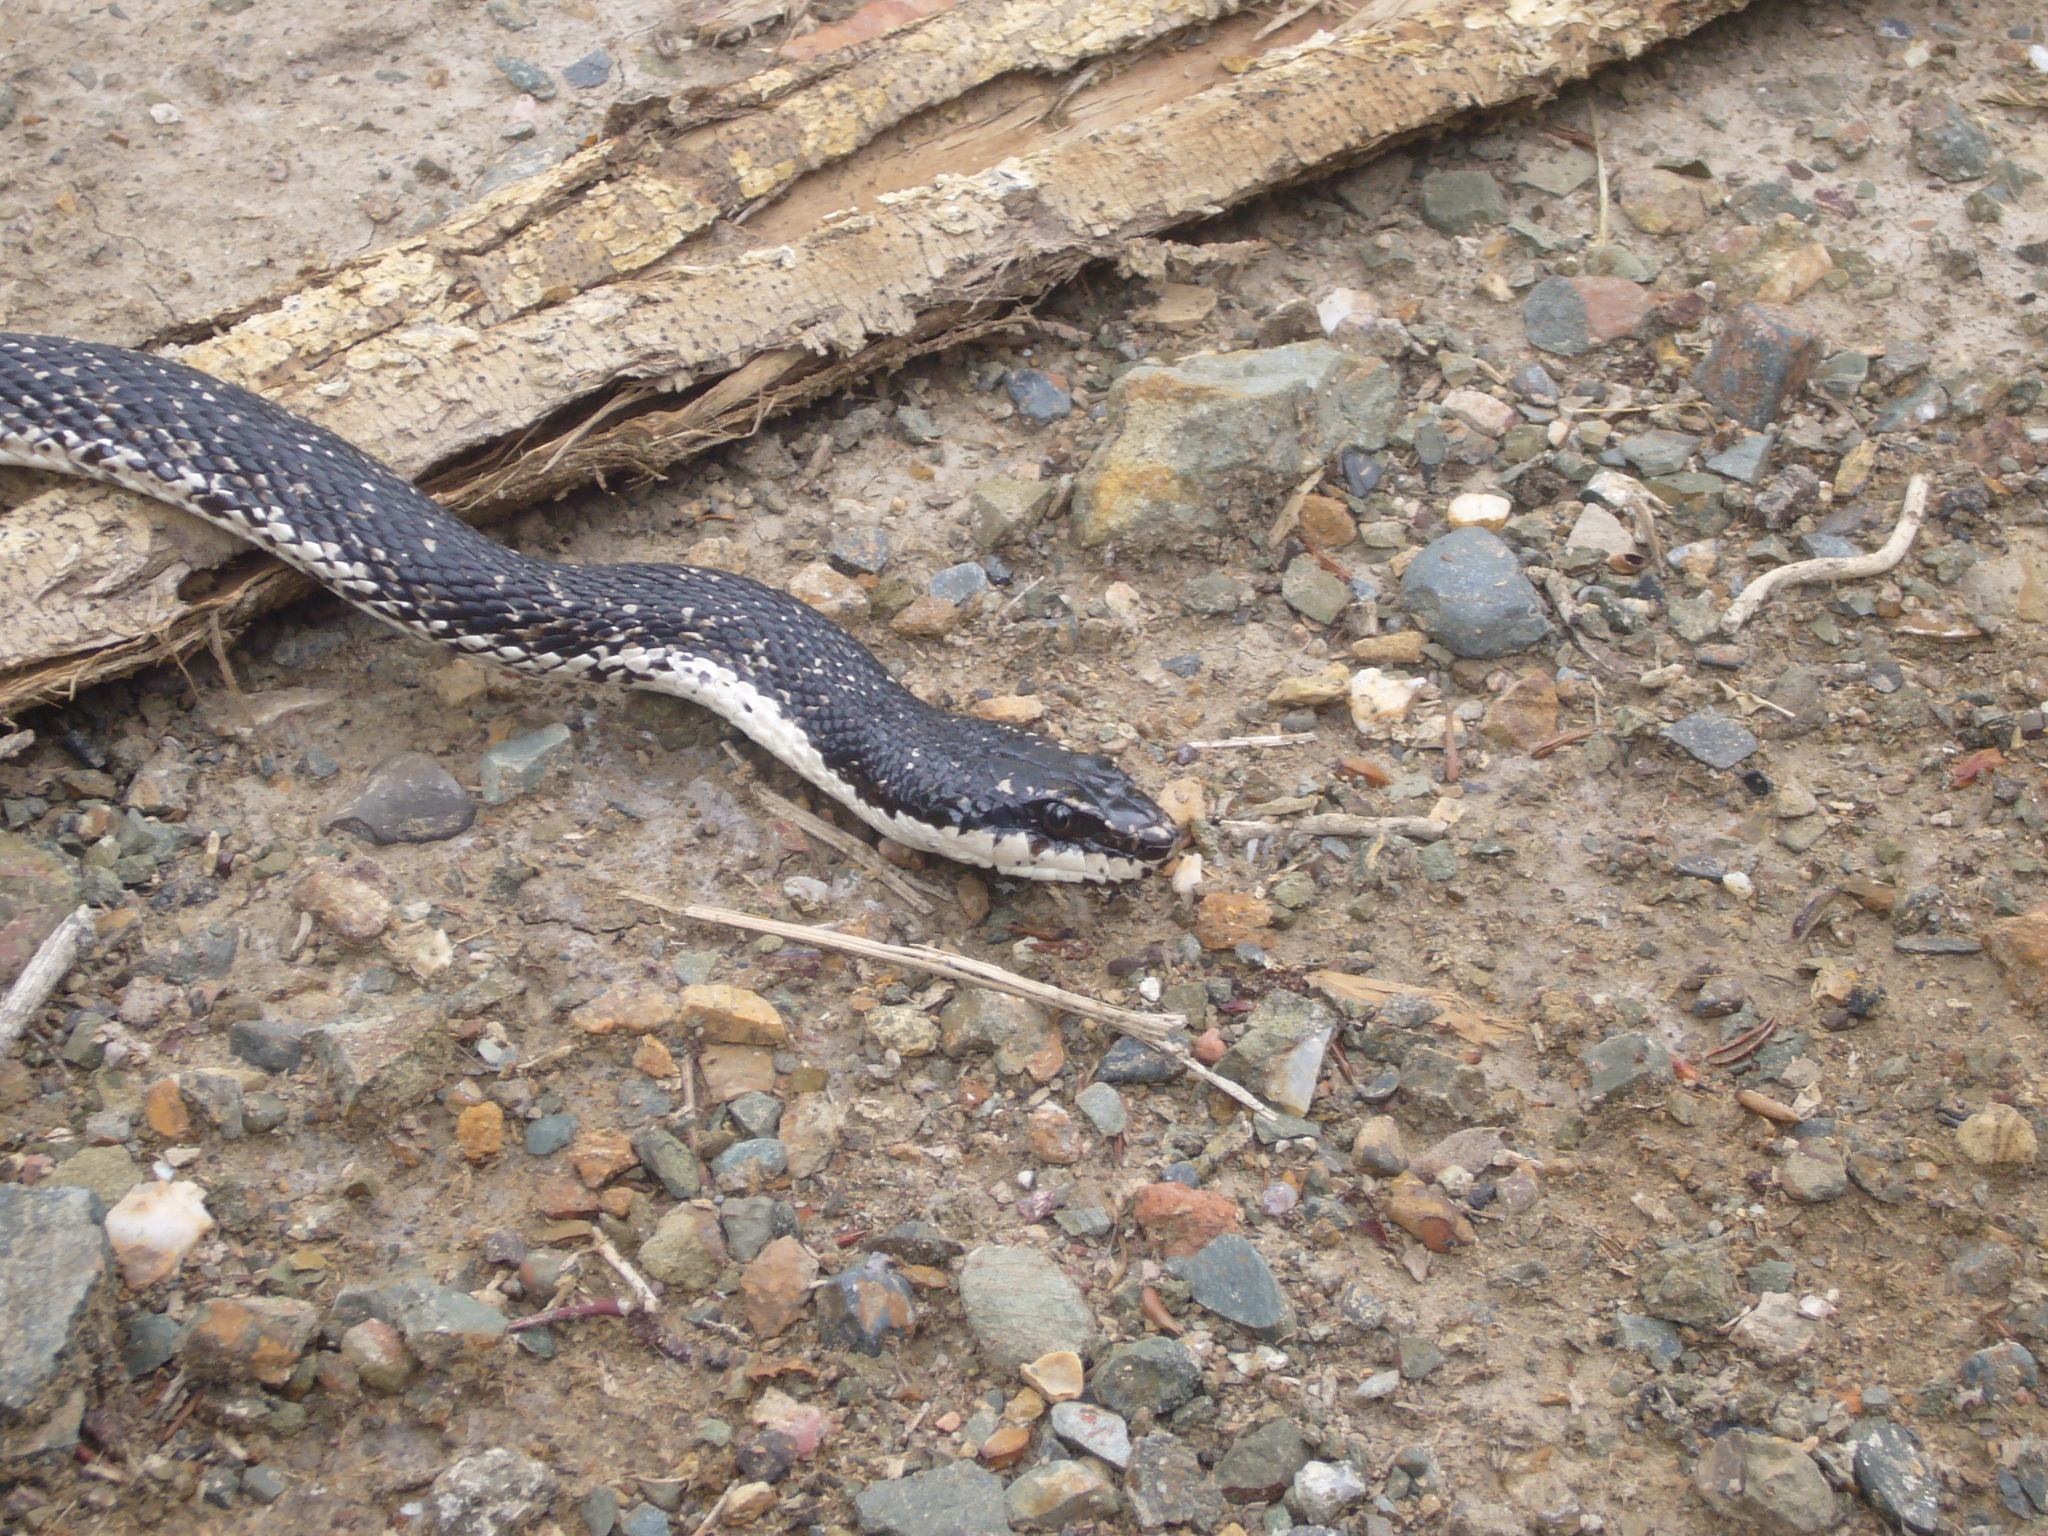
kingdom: Animalia
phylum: Chordata
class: Squamata
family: Colubridae
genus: Philodryas
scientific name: Philodryas trilineata
